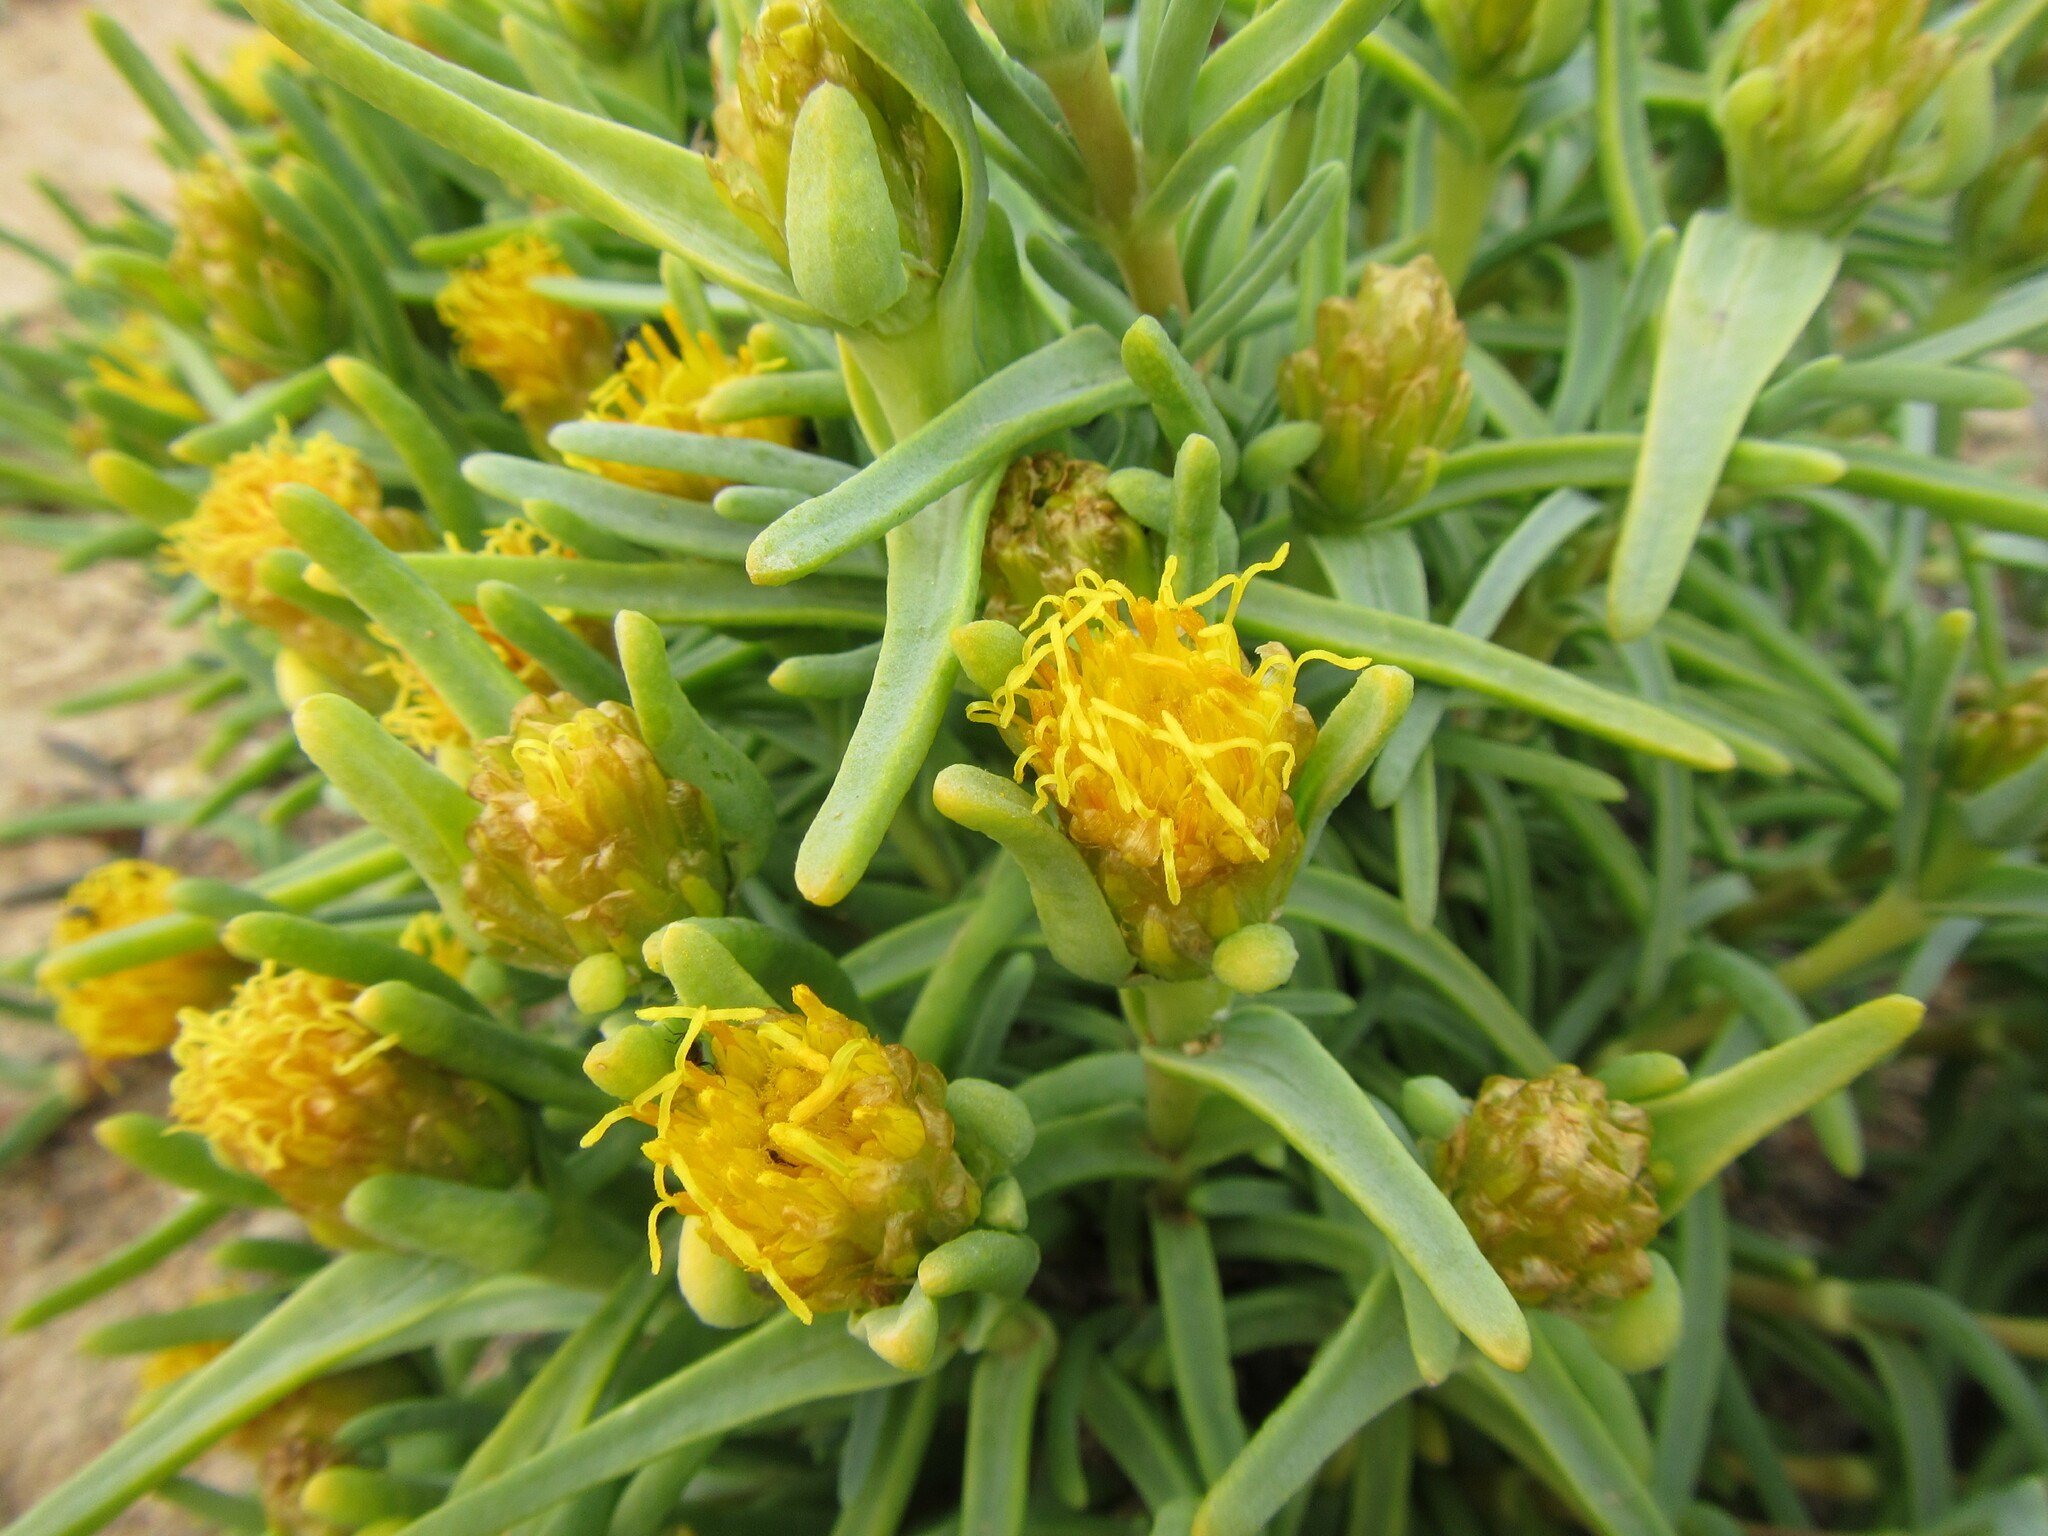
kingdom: Plantae
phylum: Tracheophyta
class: Magnoliopsida
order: Asterales
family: Asteraceae
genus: Pteronia
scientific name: Pteronia heterocarpa
